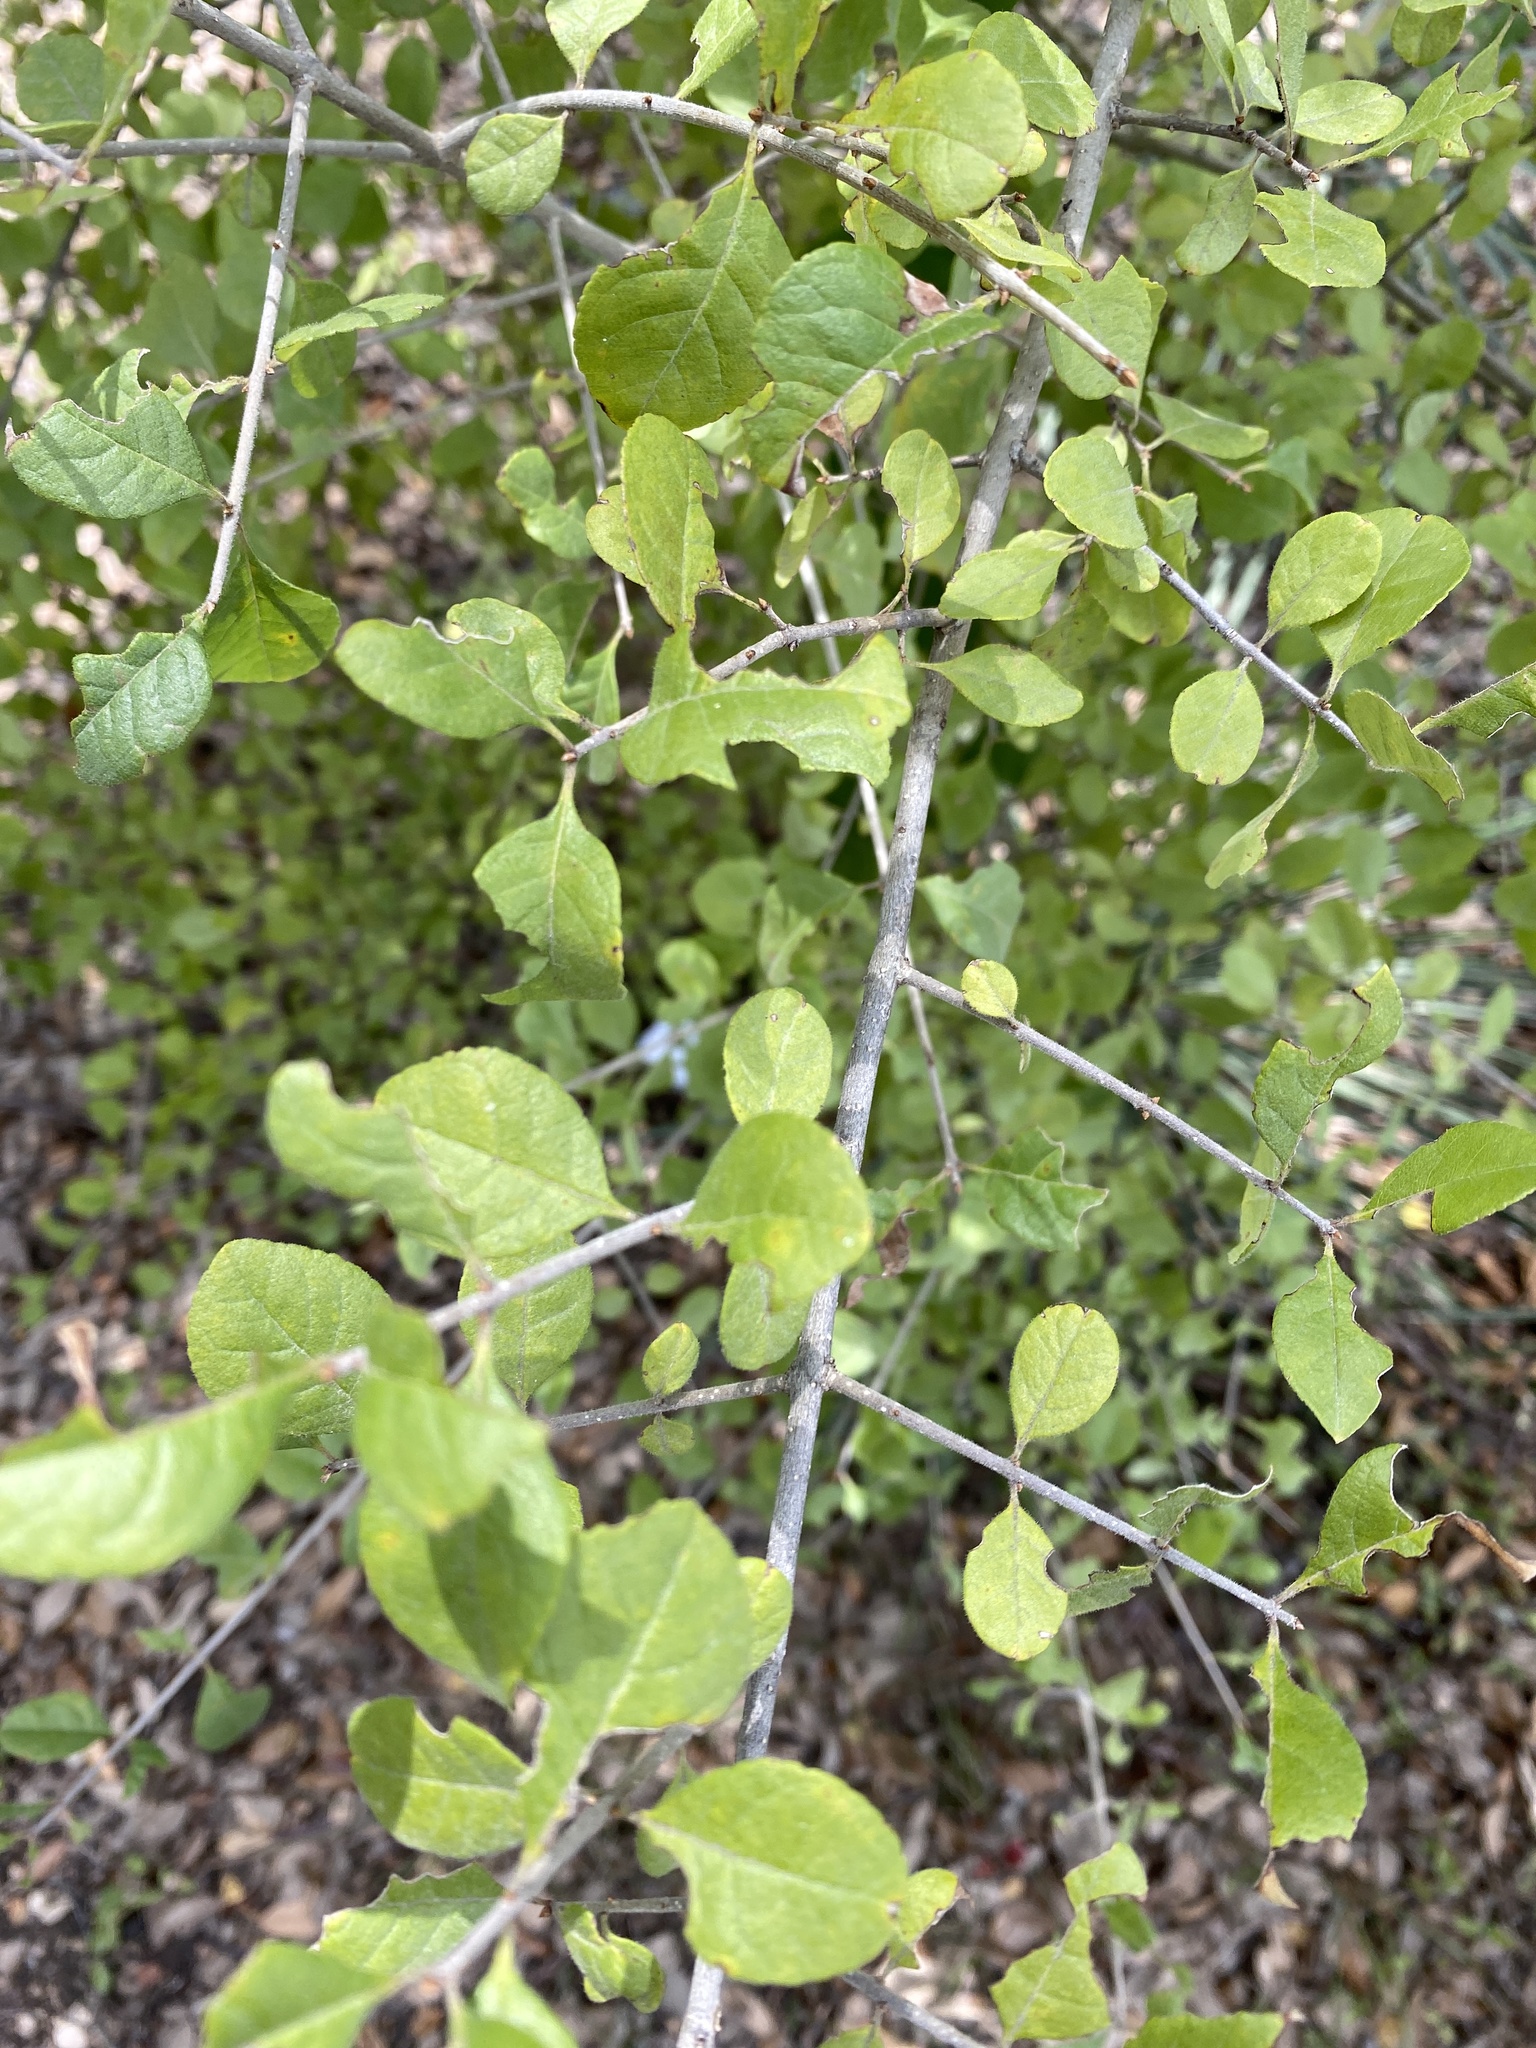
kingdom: Plantae
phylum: Tracheophyta
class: Magnoliopsida
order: Lamiales
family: Oleaceae
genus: Forestiera
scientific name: Forestiera pubescens
